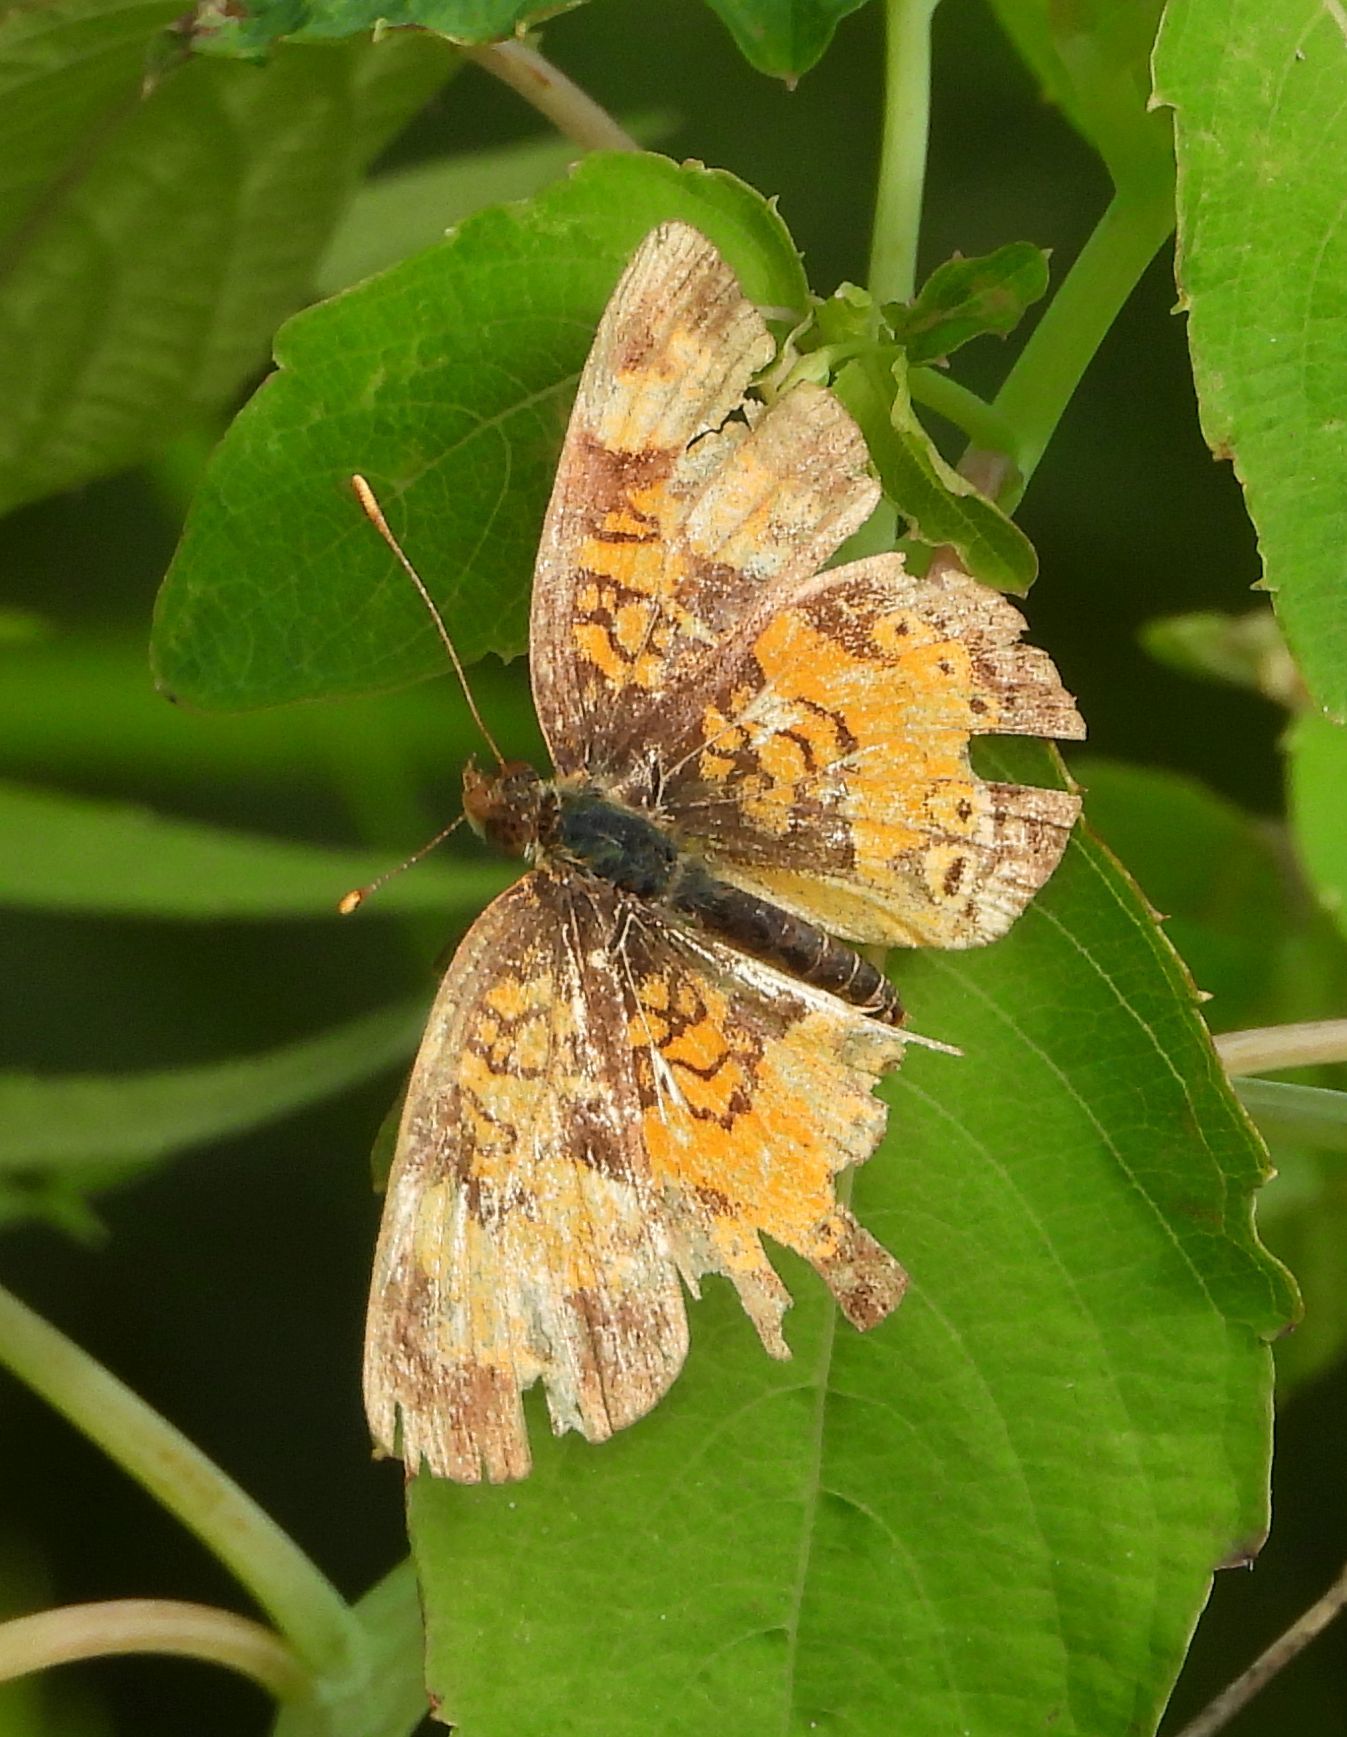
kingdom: Animalia
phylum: Arthropoda
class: Insecta
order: Lepidoptera
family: Nymphalidae
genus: Phyciodes
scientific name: Phyciodes tharos
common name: Pearl crescent
